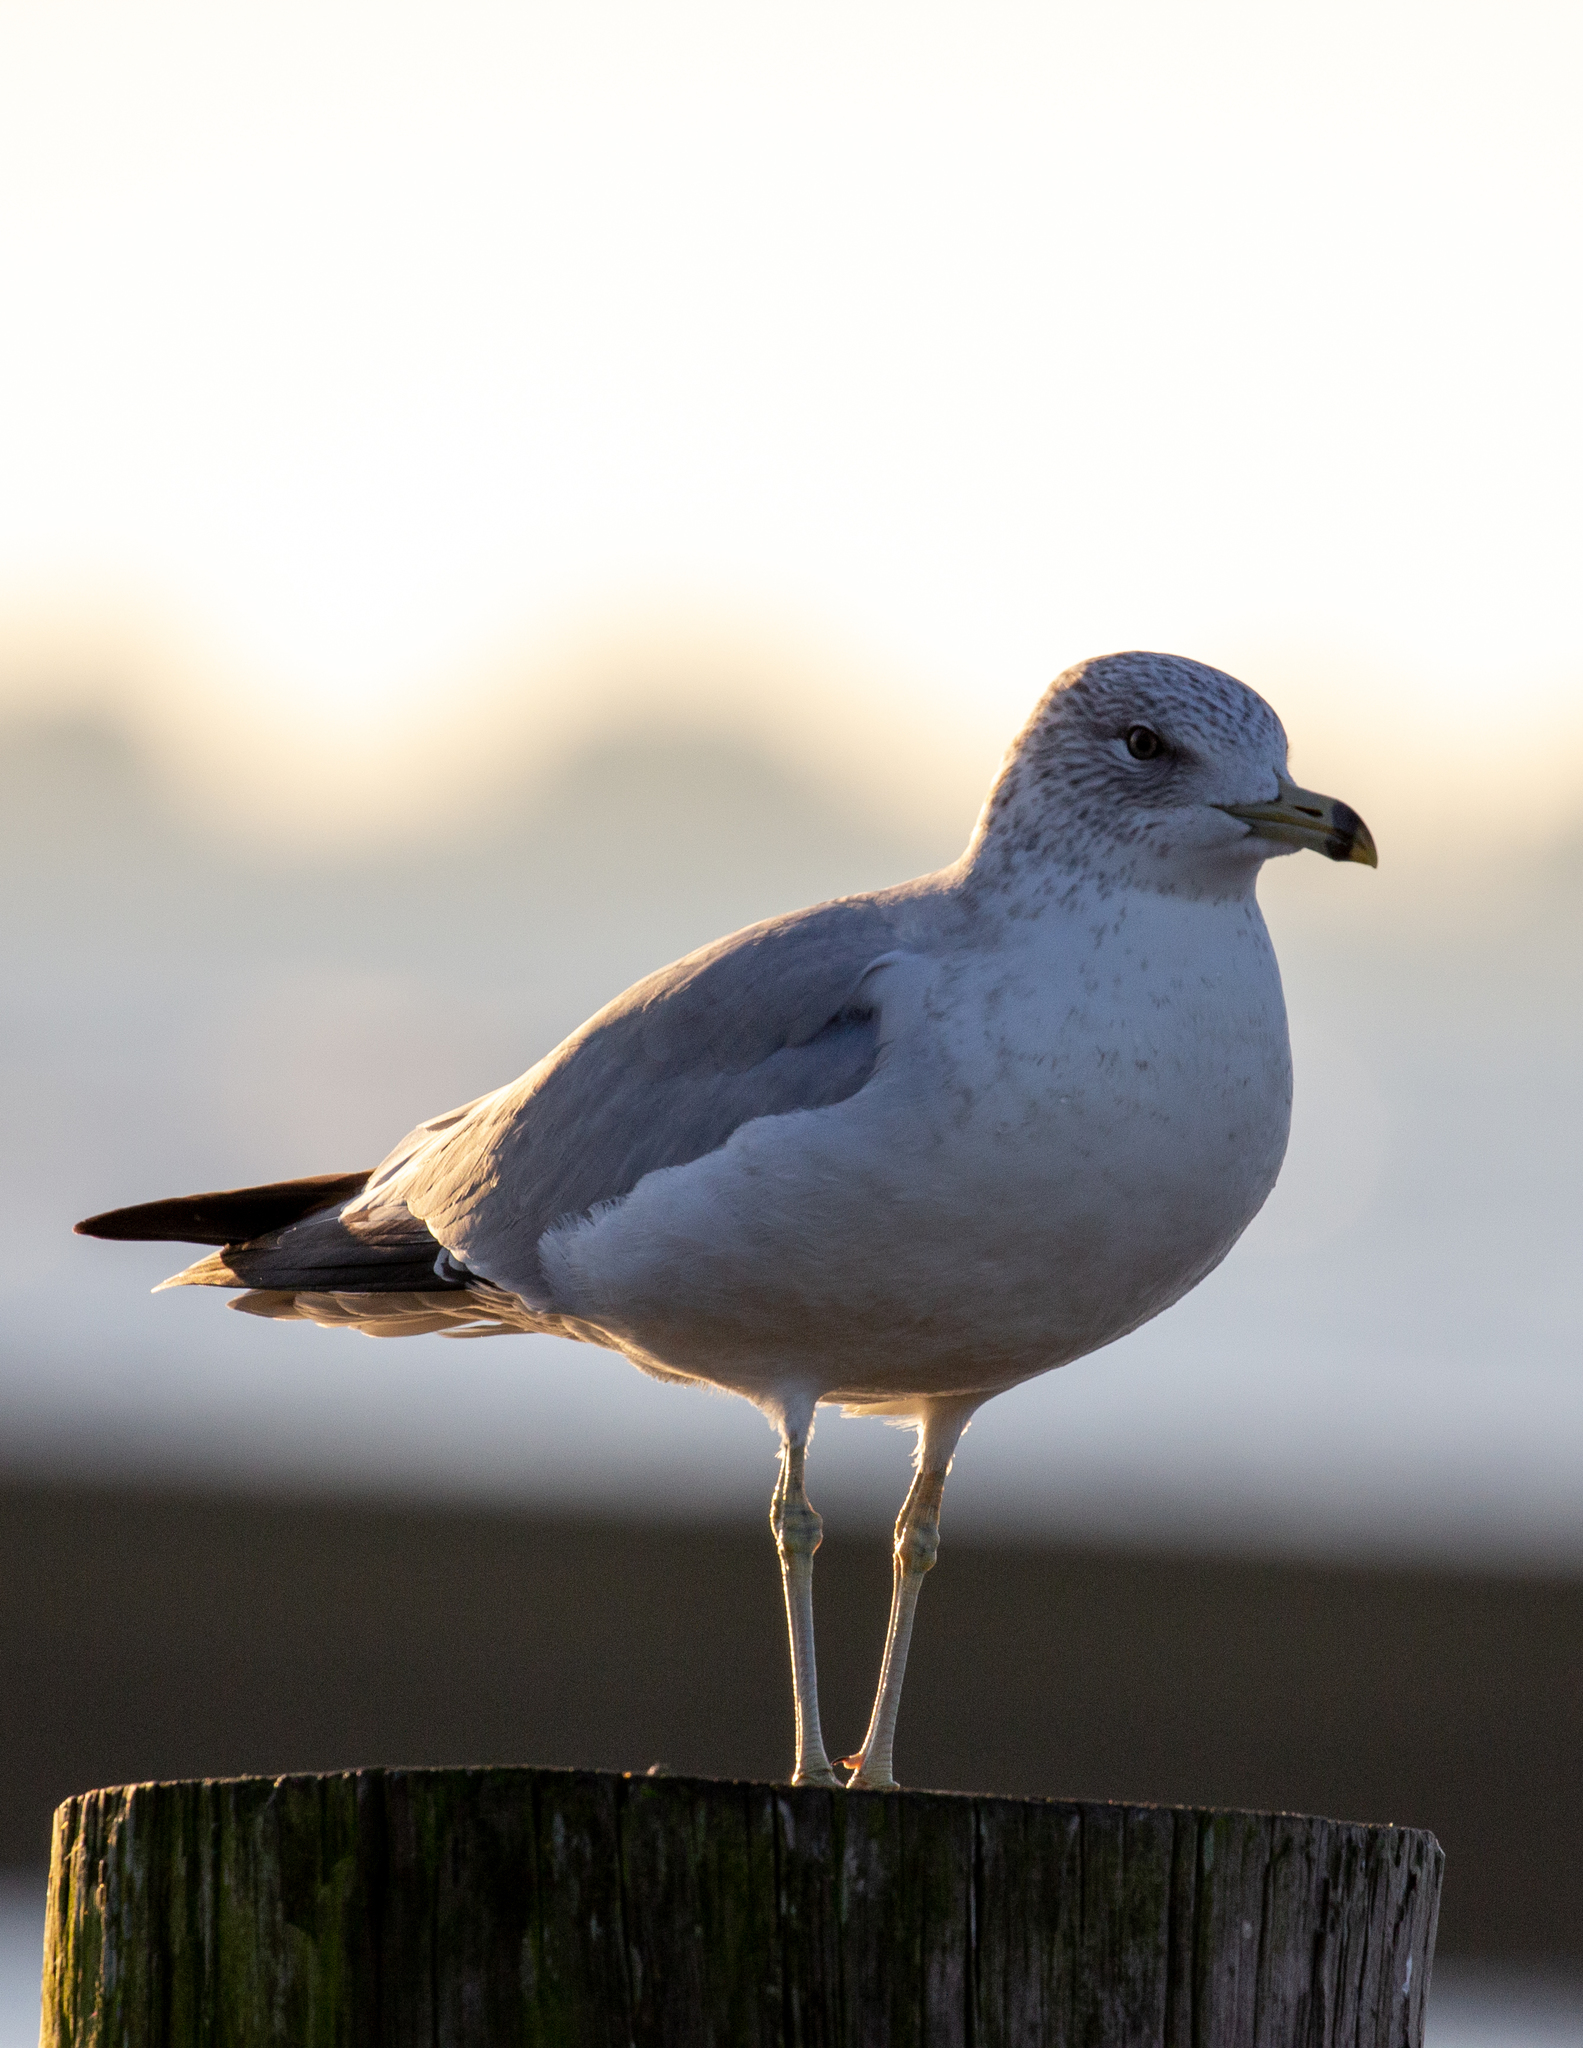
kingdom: Animalia
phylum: Chordata
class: Aves
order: Charadriiformes
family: Laridae
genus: Larus
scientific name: Larus delawarensis
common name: Ring-billed gull
